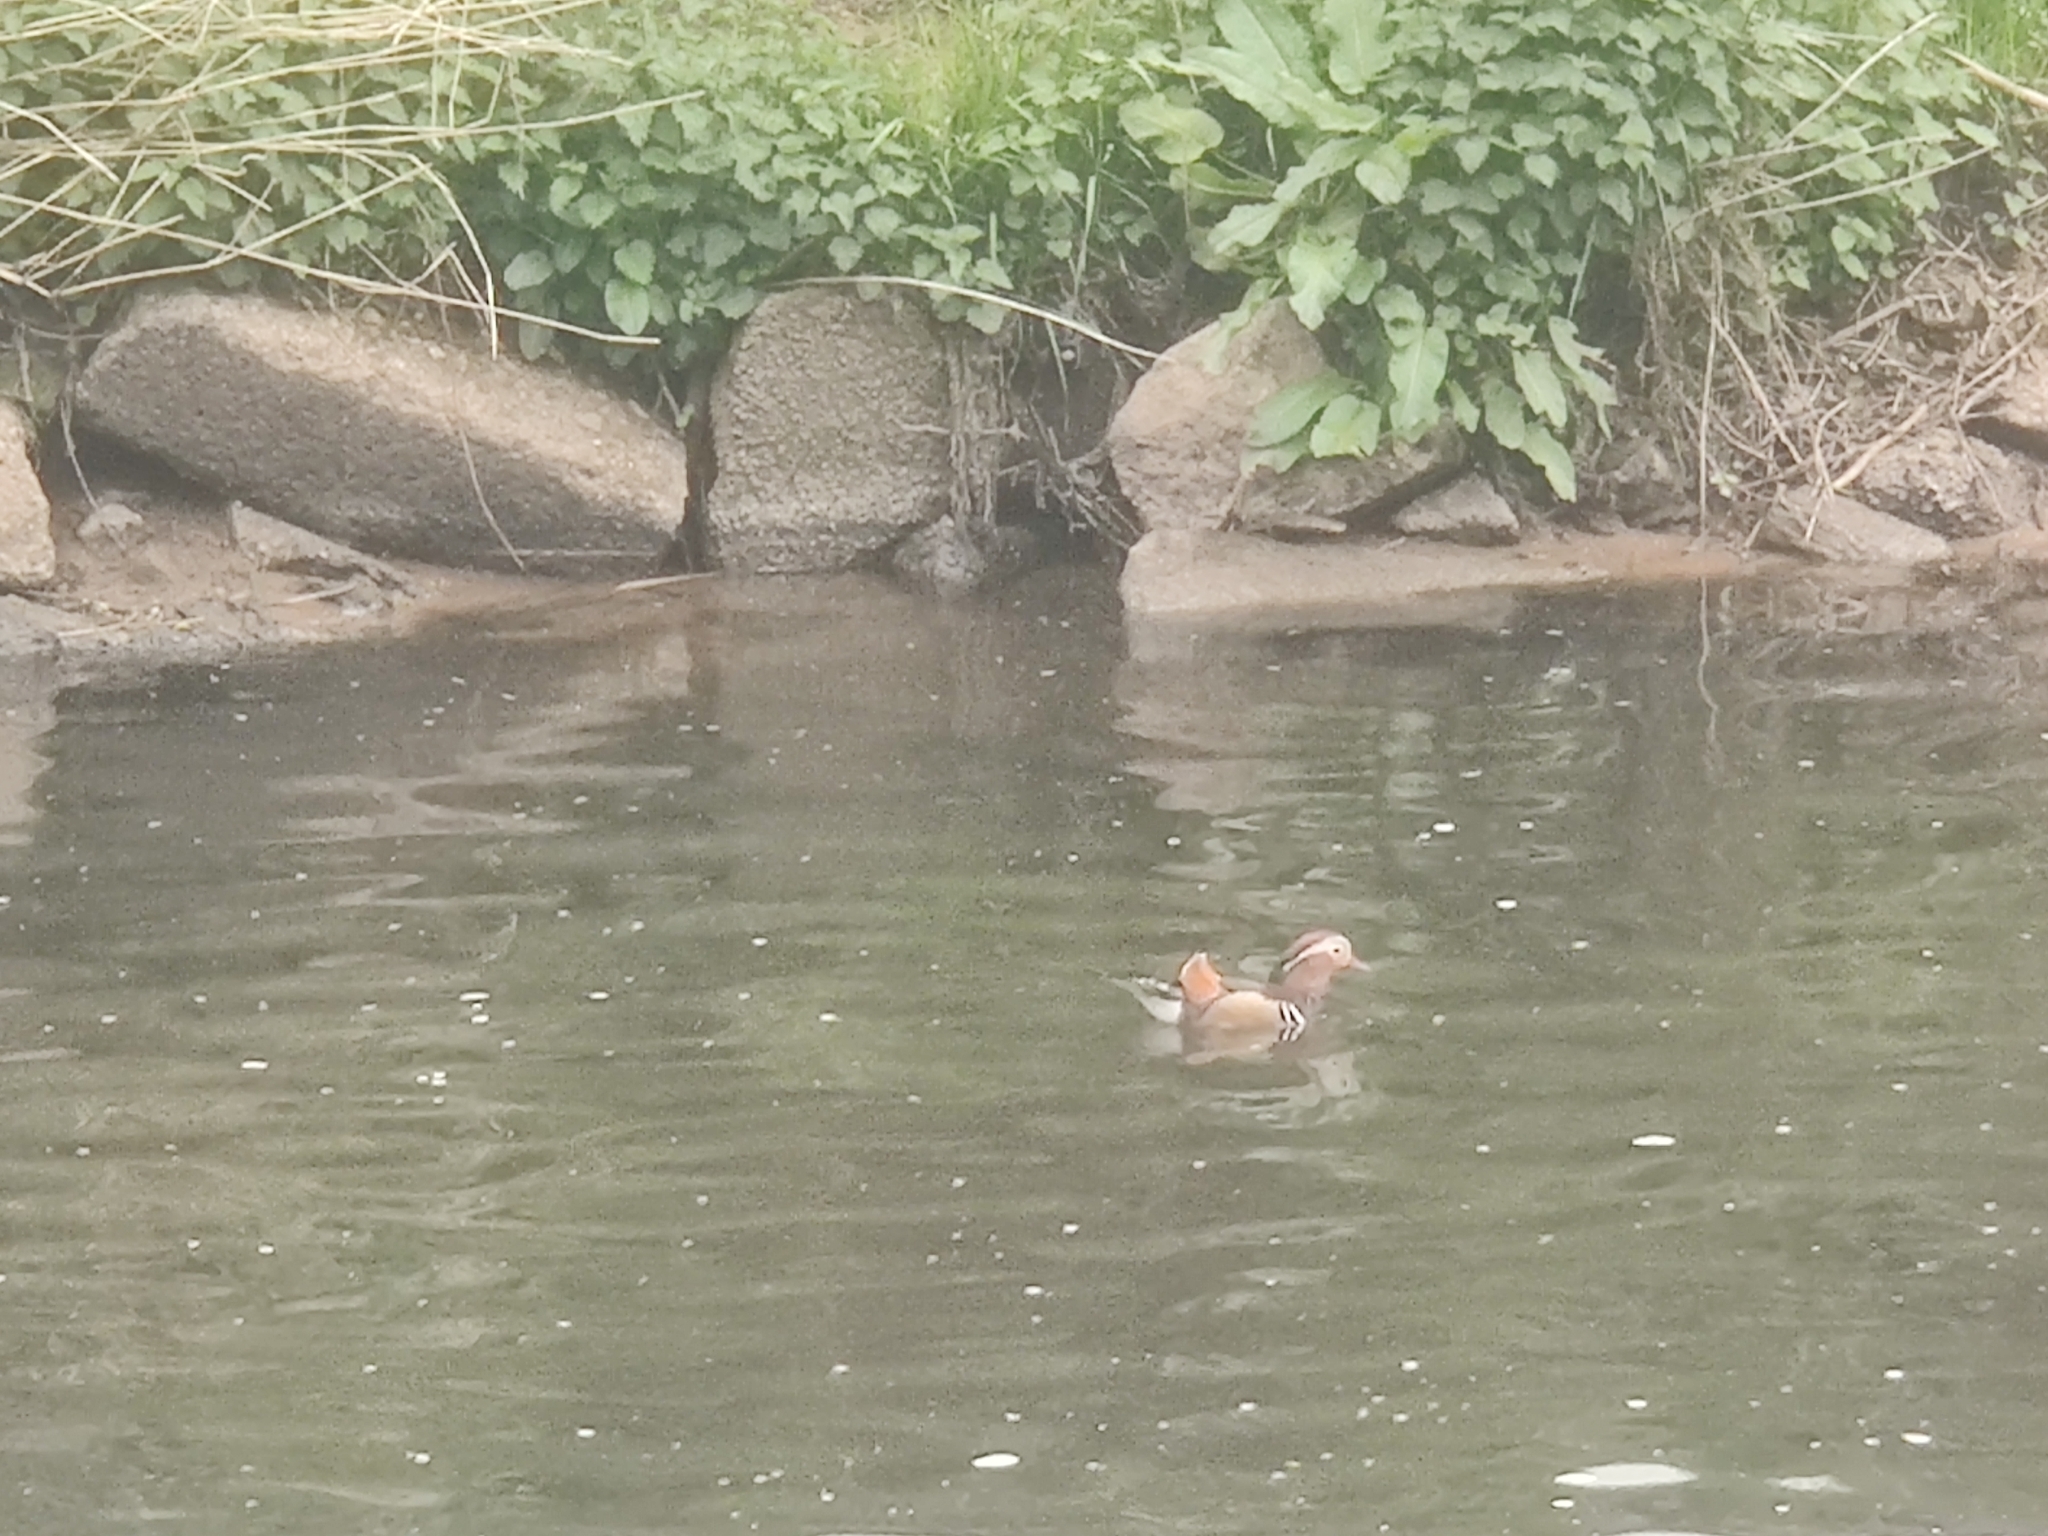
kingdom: Animalia
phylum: Chordata
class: Aves
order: Anseriformes
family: Anatidae
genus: Aix
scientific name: Aix galericulata
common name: Mandarin duck
